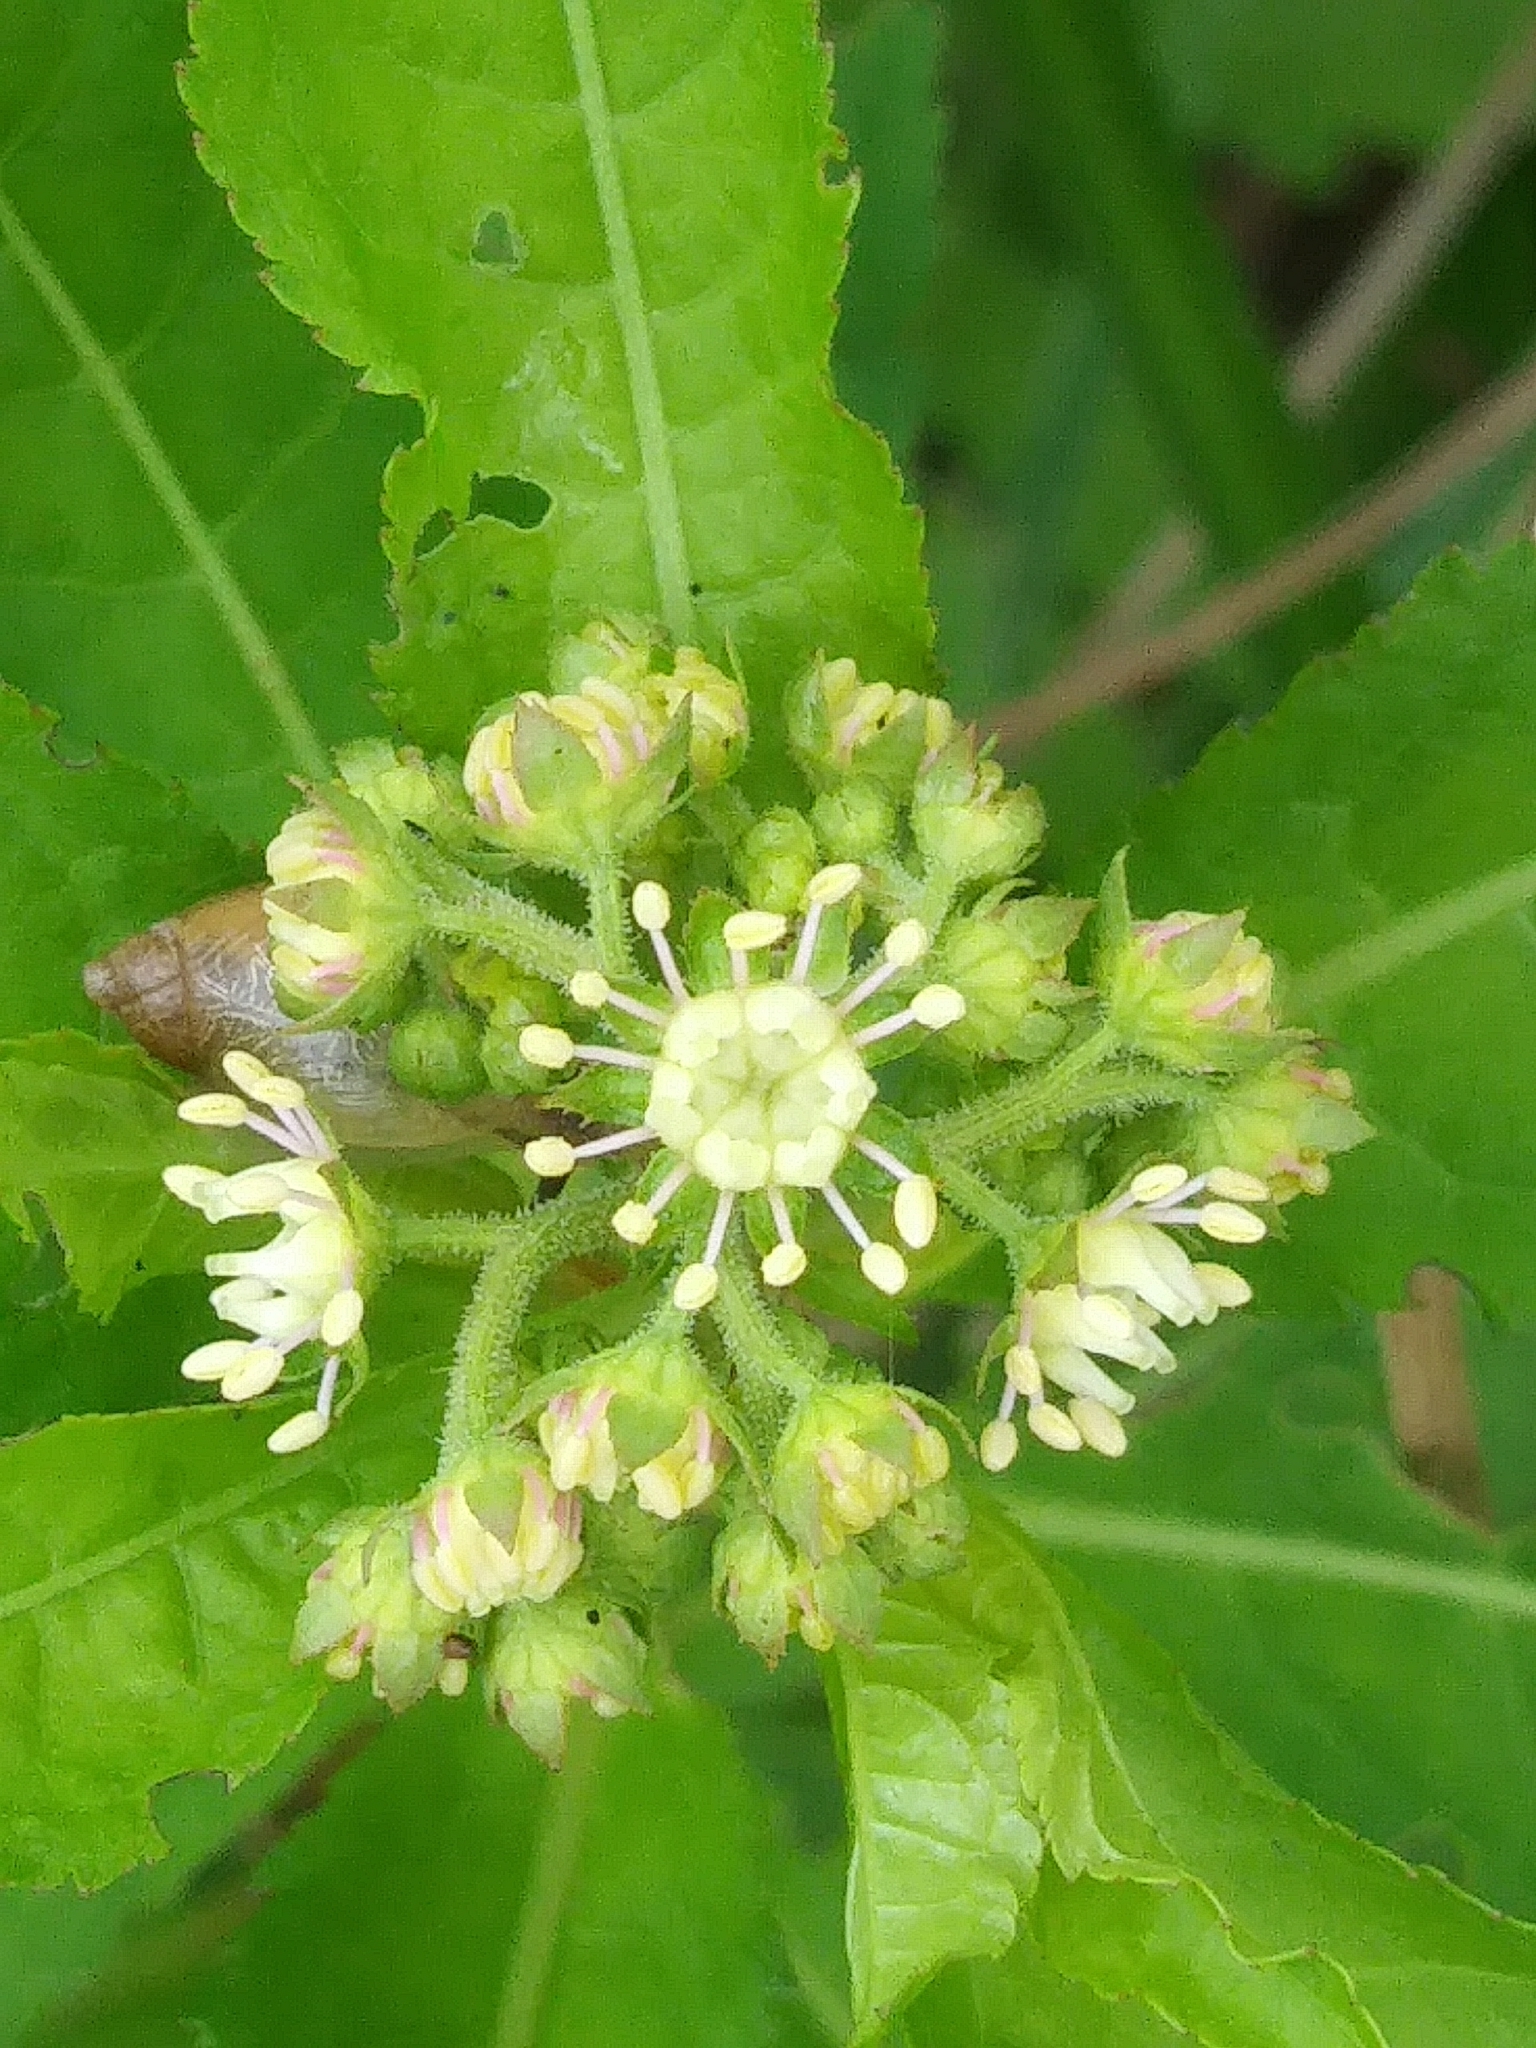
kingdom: Plantae
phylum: Tracheophyta
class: Magnoliopsida
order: Saxifragales
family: Penthoraceae
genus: Penthorum
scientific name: Penthorum sedoides
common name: Ditch stonecrop
